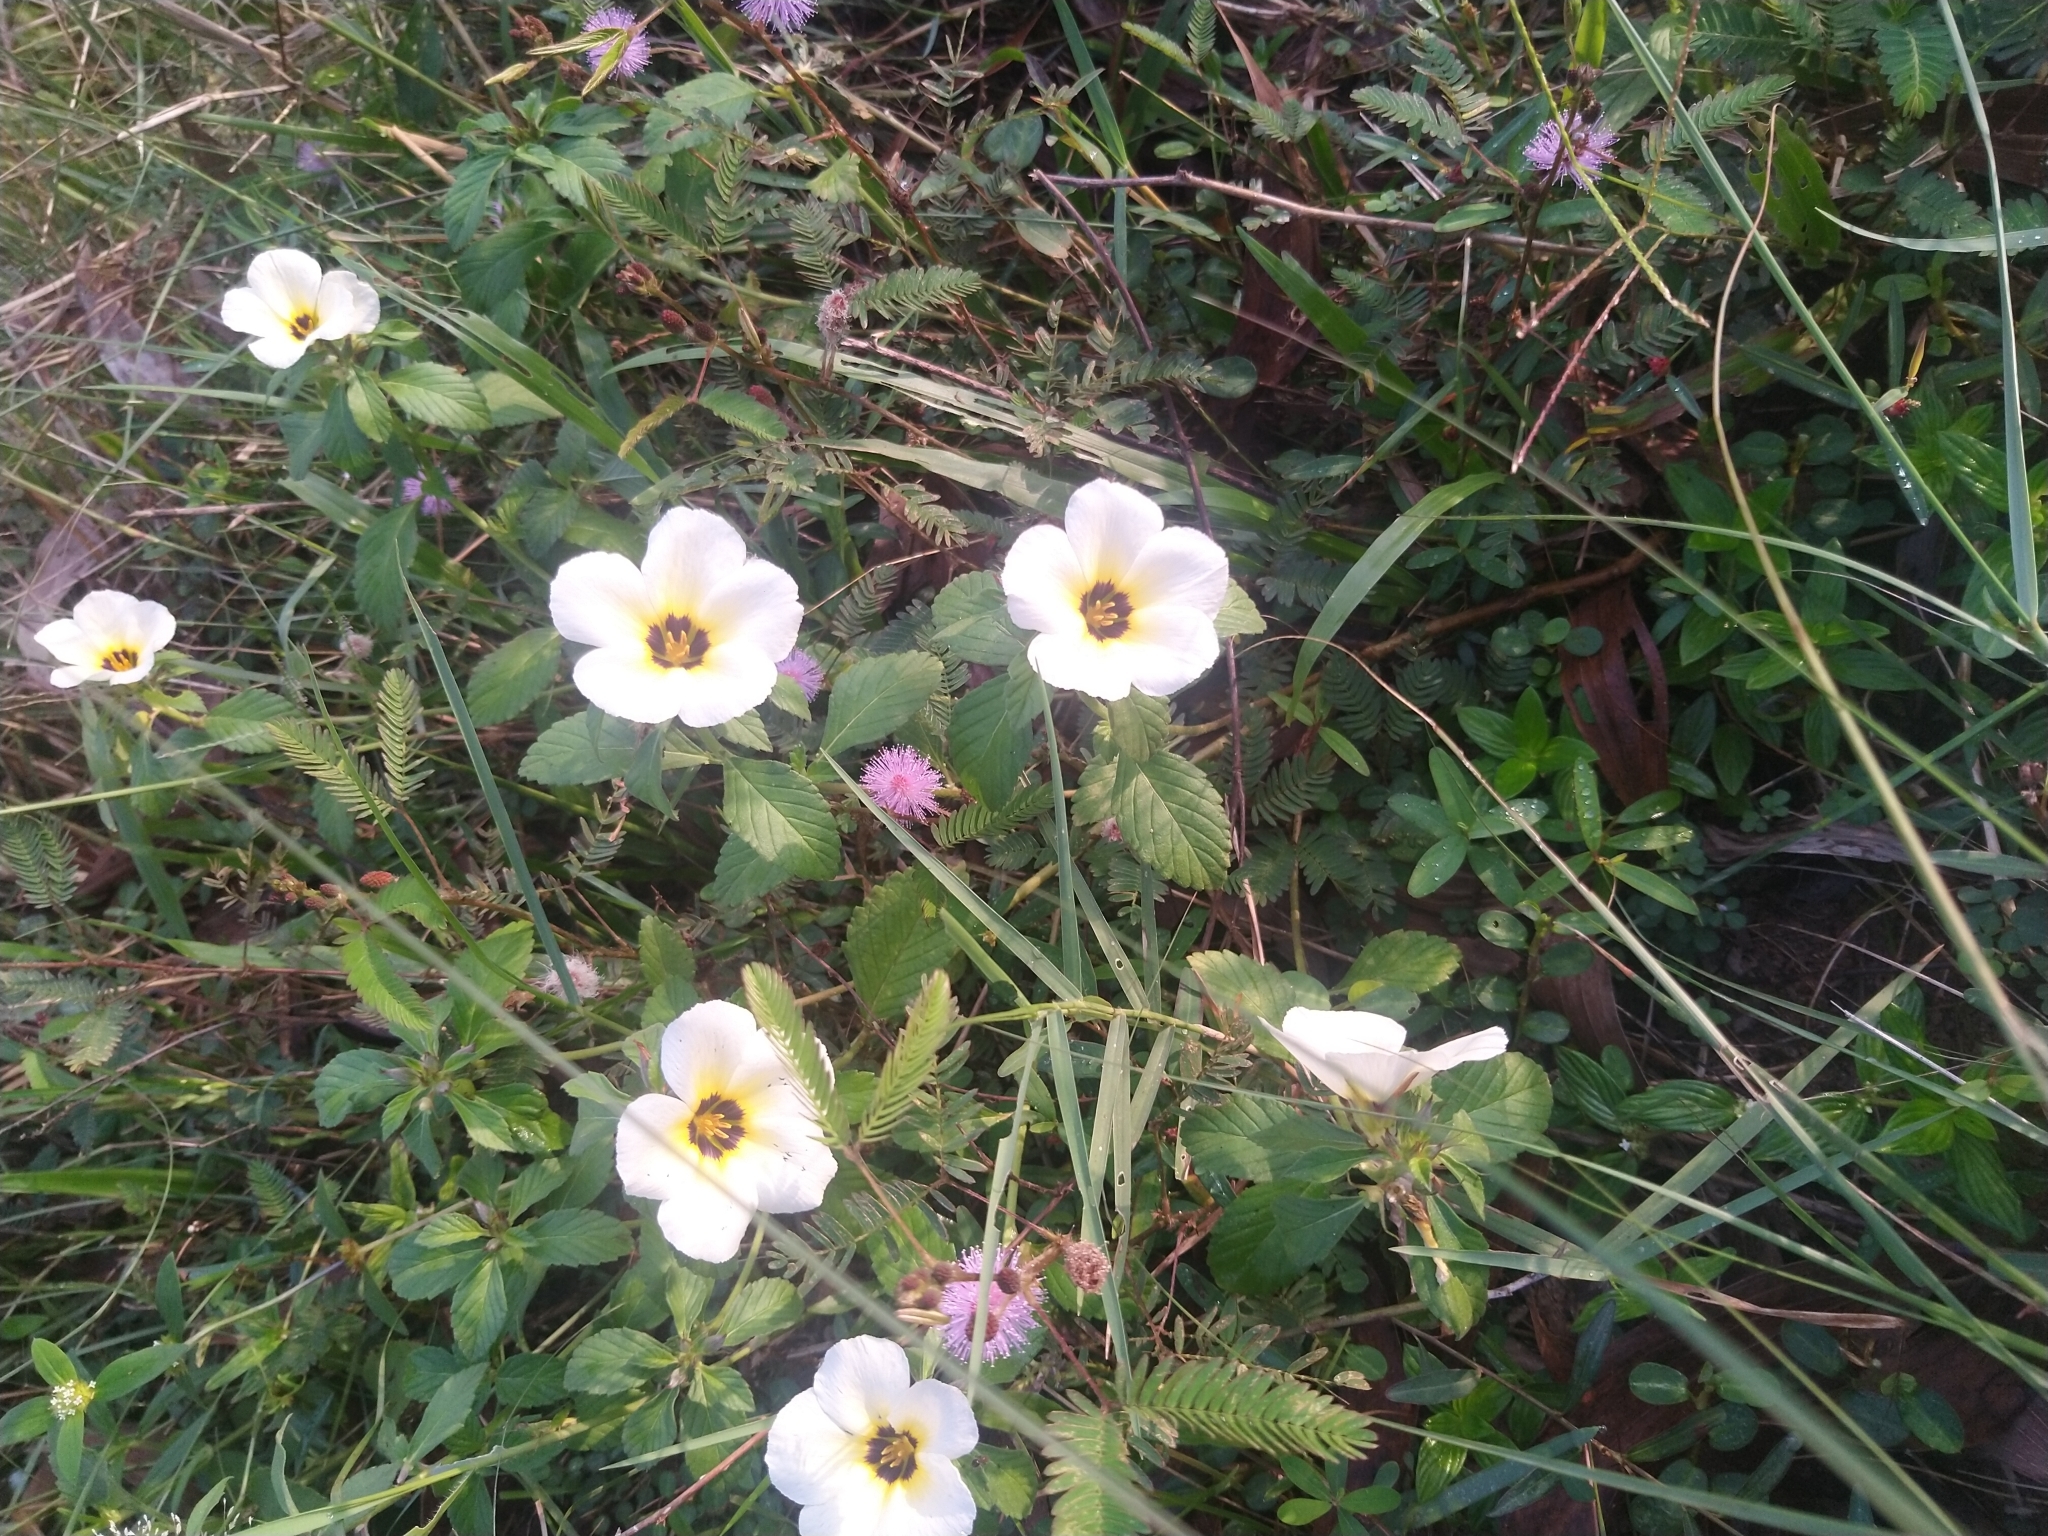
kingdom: Plantae
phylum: Tracheophyta
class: Magnoliopsida
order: Malpighiales
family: Turneraceae
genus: Turnera
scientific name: Turnera subulata
